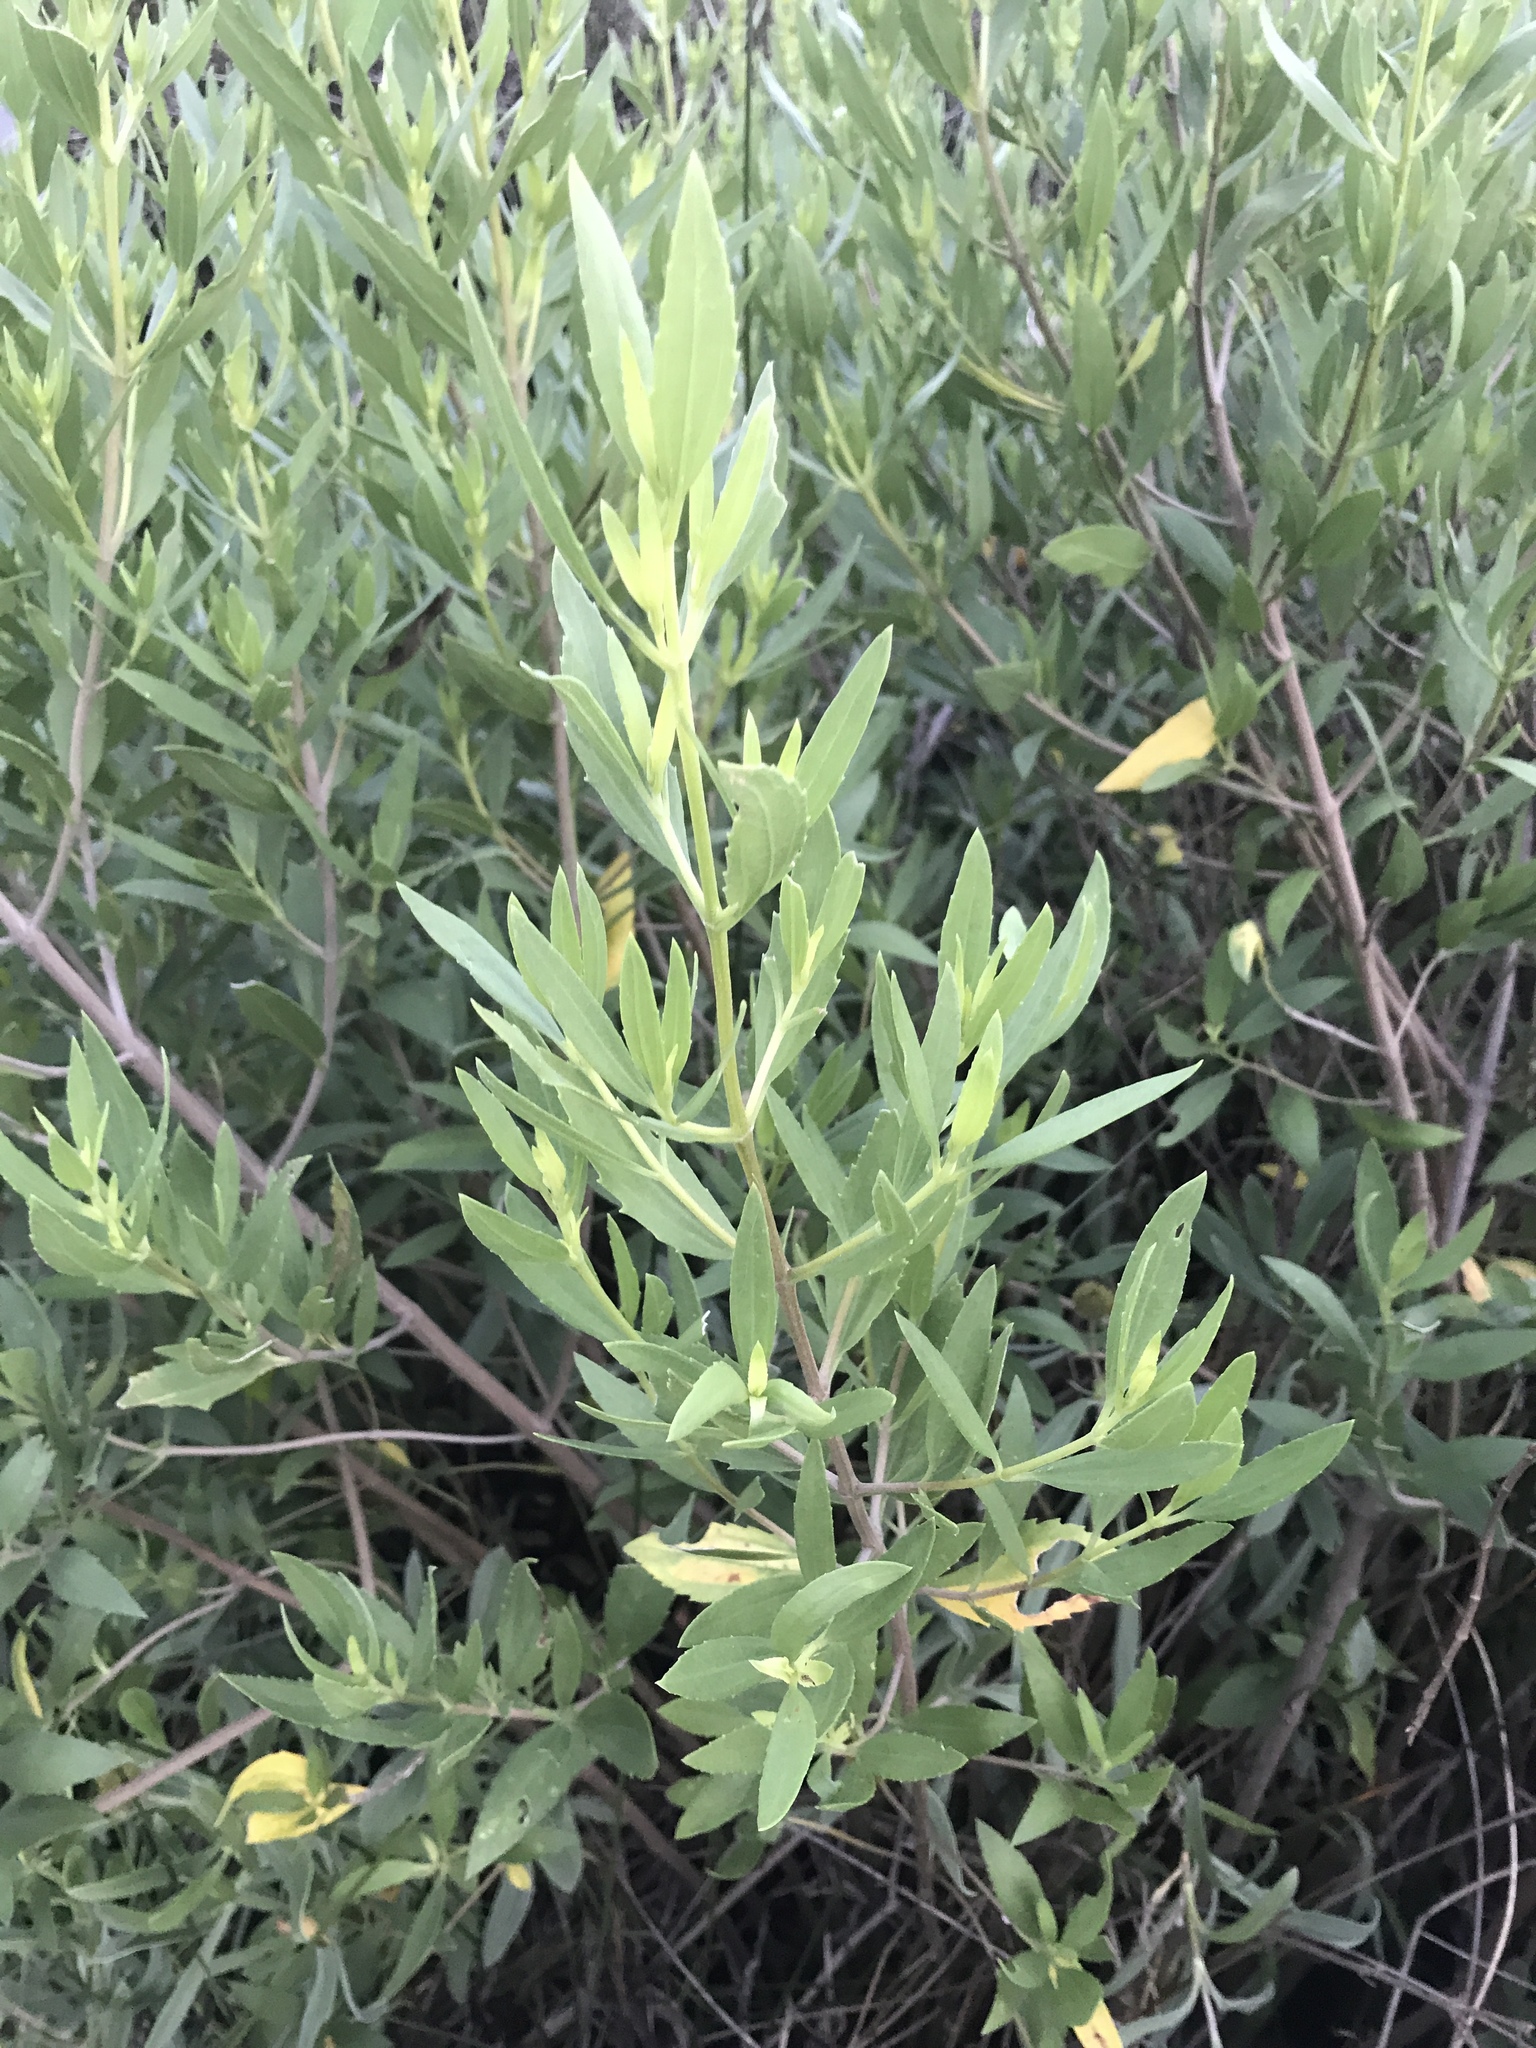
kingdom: Plantae
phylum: Tracheophyta
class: Magnoliopsida
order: Asterales
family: Asteraceae
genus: Iva
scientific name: Iva frutescens
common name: Big-leaved marsh-elder
